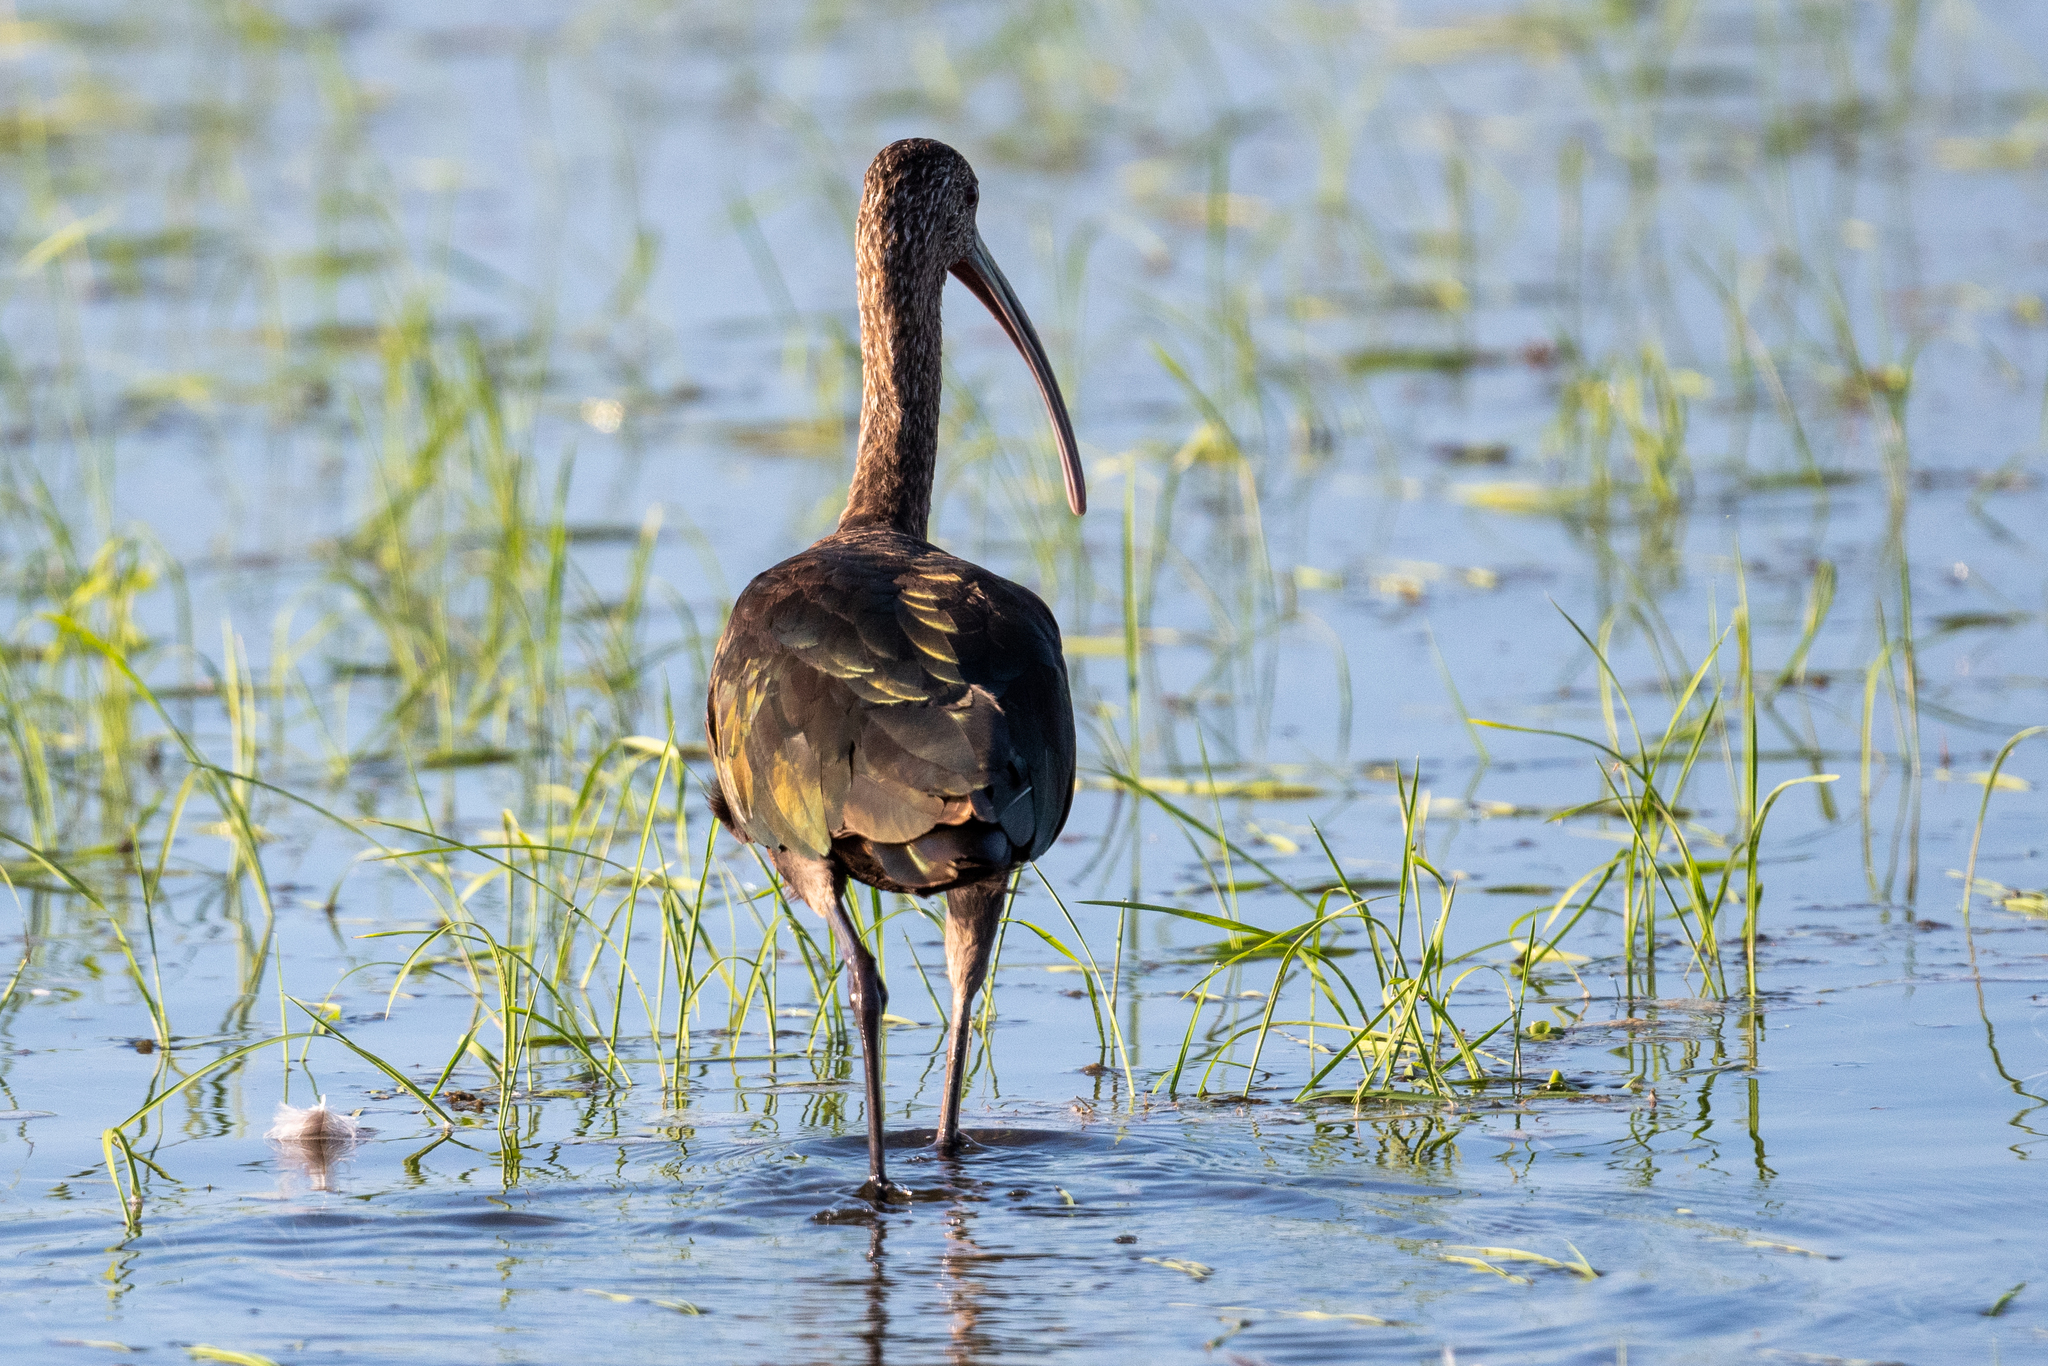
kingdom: Animalia
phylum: Chordata
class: Aves
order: Pelecaniformes
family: Threskiornithidae
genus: Plegadis
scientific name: Plegadis chihi
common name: White-faced ibis
